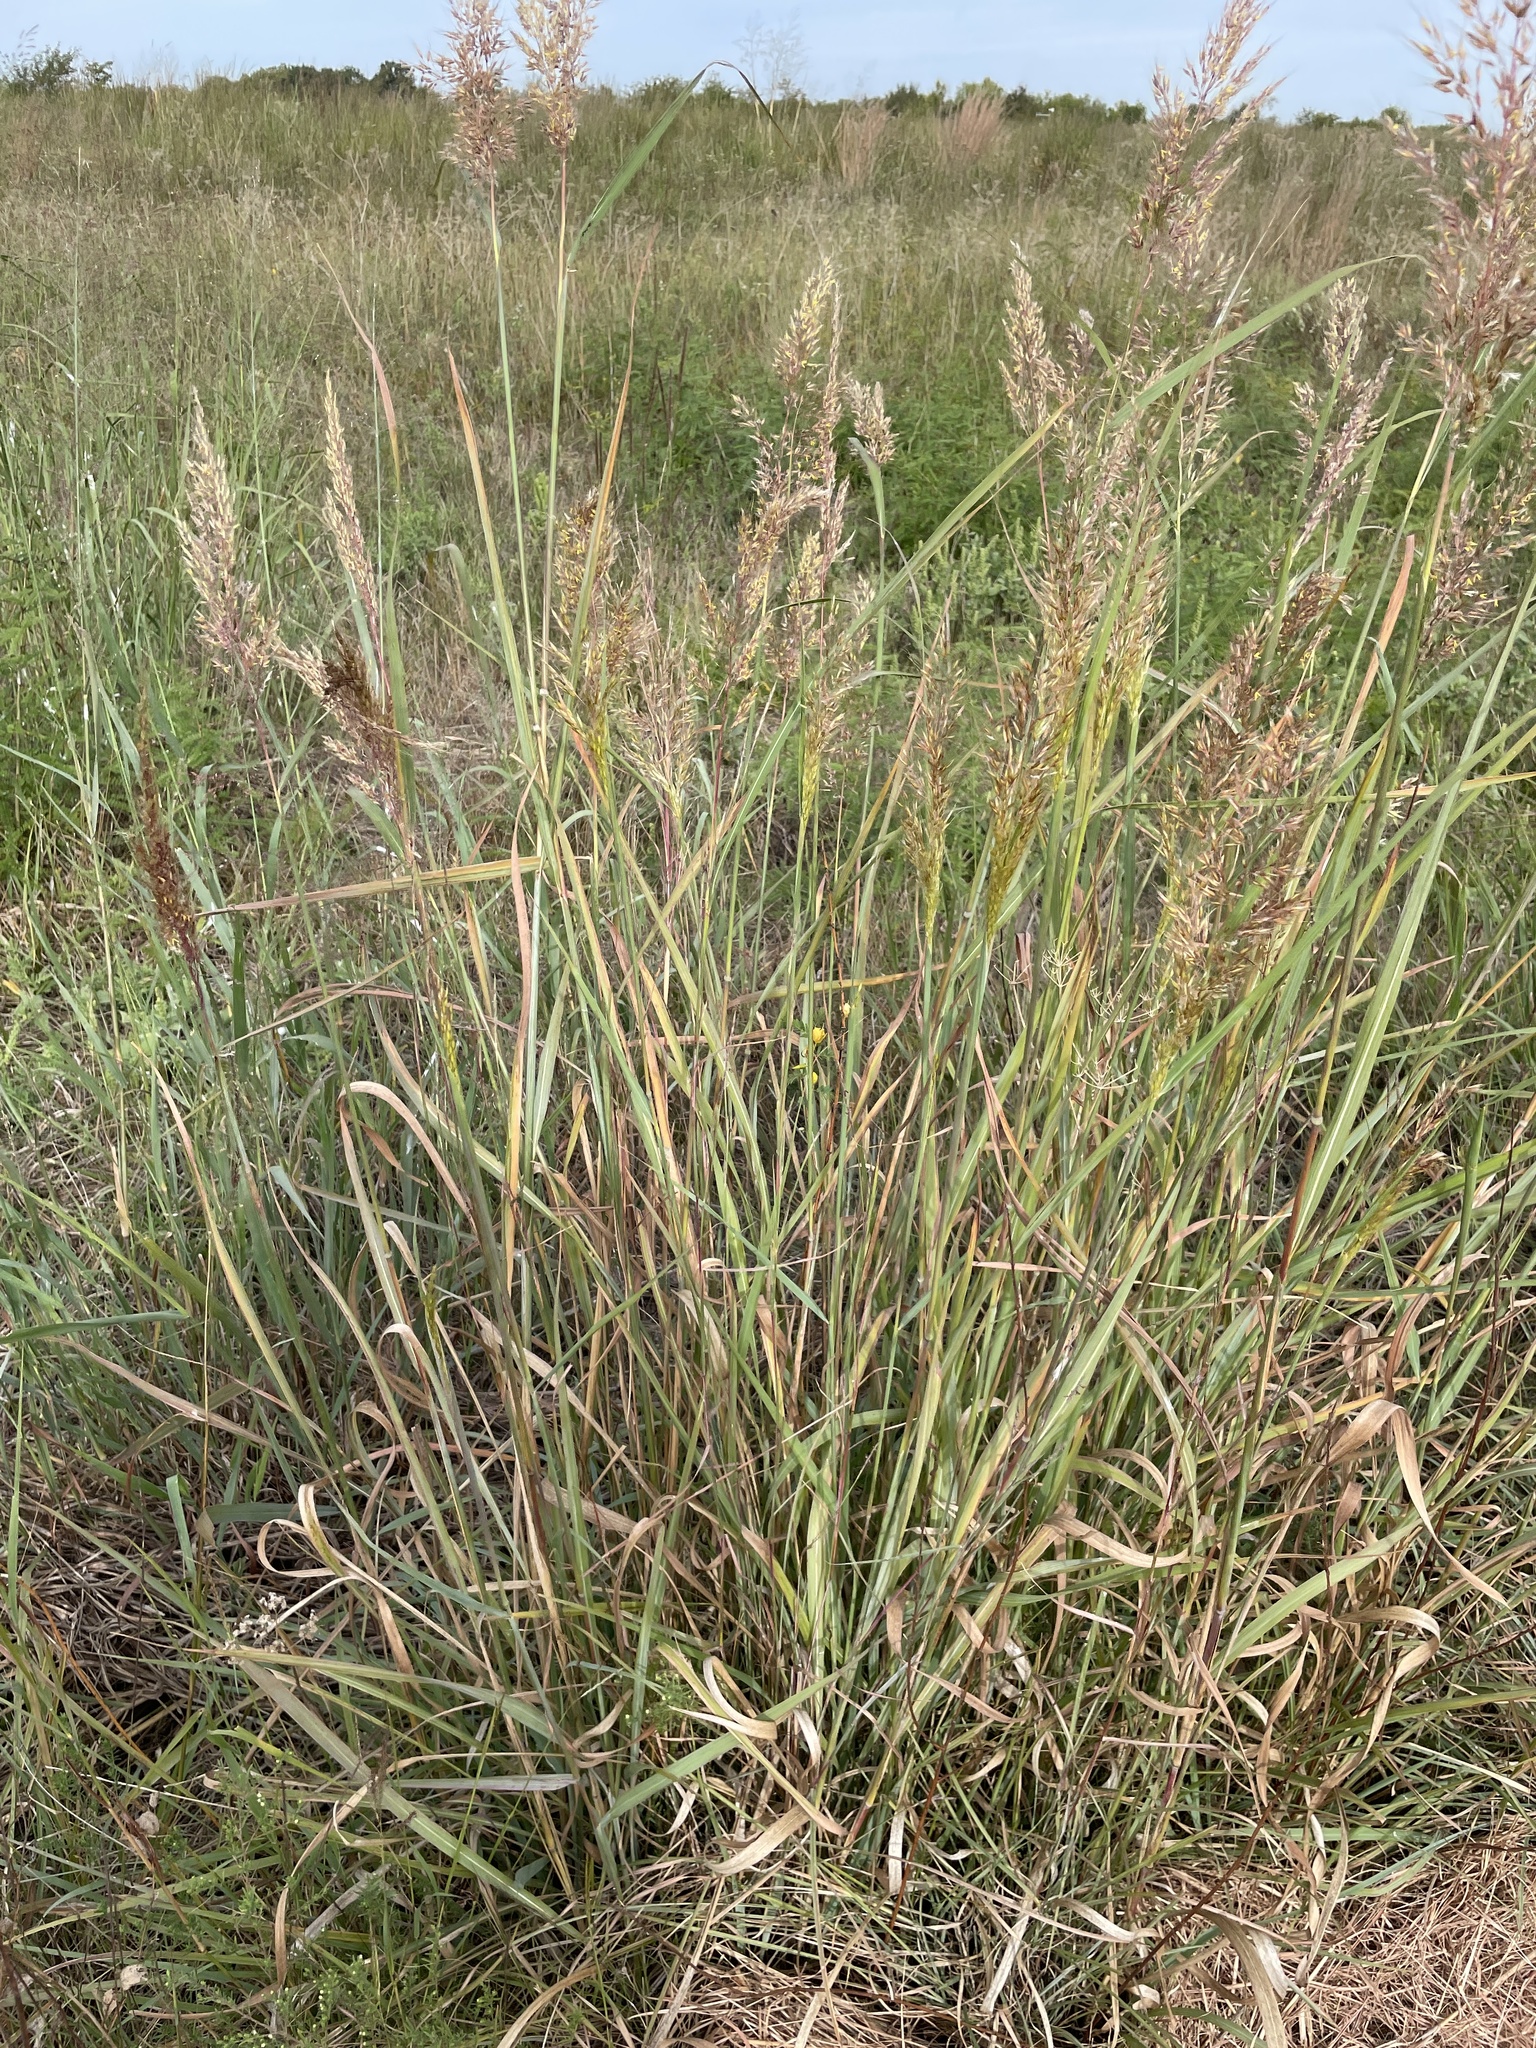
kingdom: Plantae
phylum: Tracheophyta
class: Liliopsida
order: Poales
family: Poaceae
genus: Sorghastrum
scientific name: Sorghastrum nutans
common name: Indian grass
